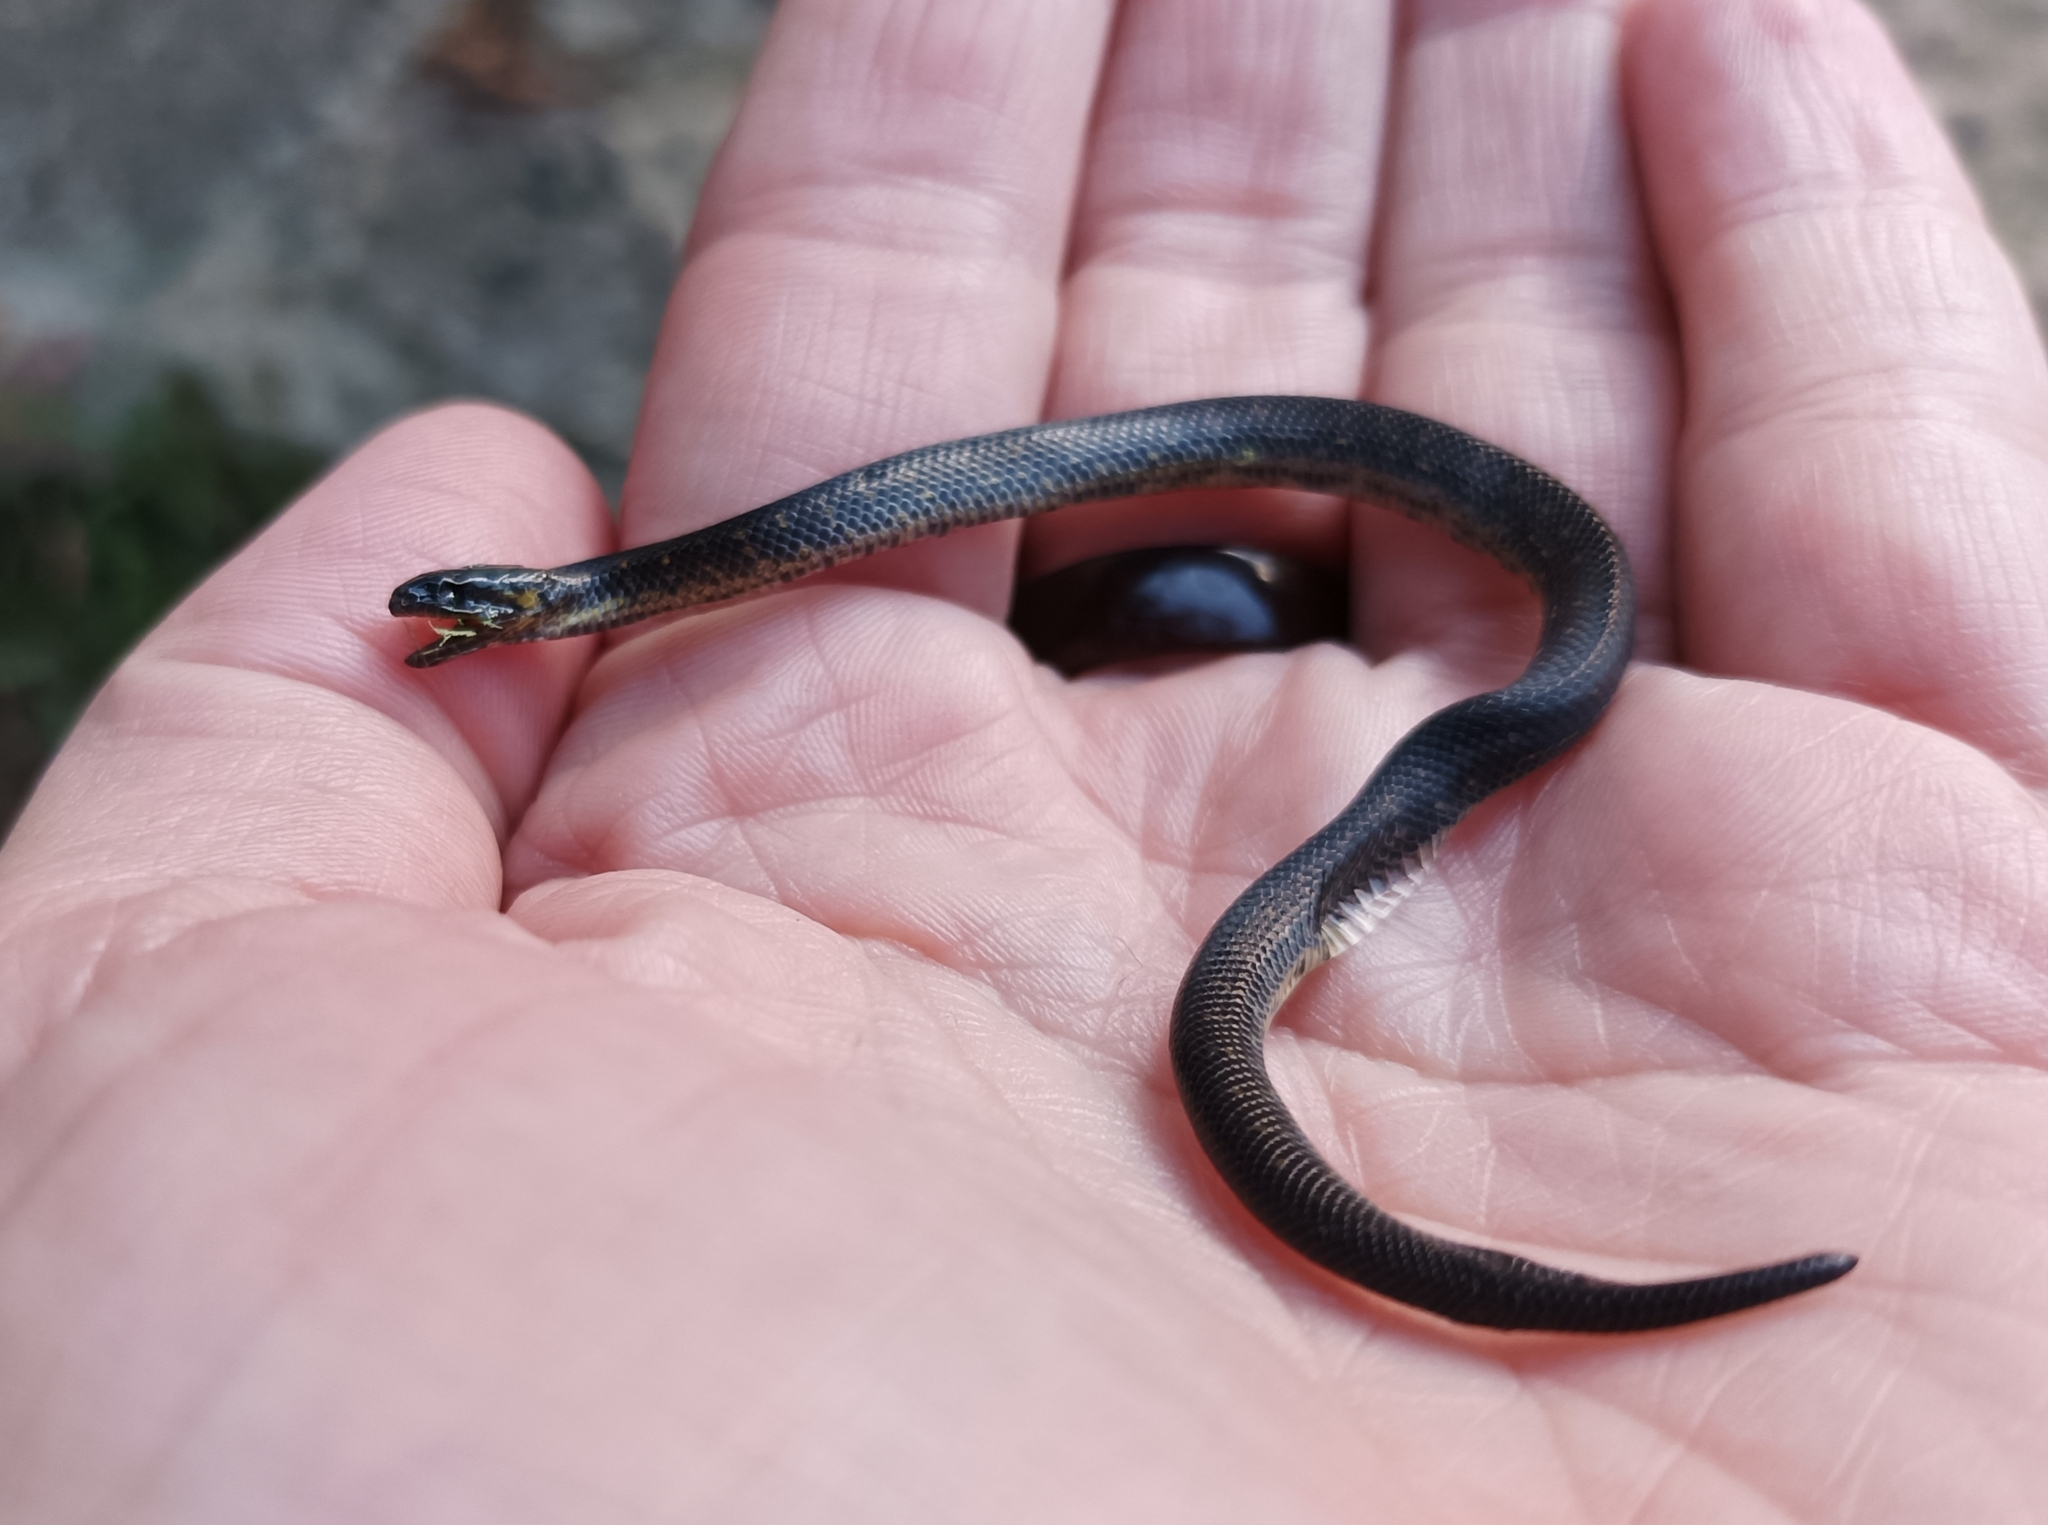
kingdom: Animalia
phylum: Chordata
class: Squamata
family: Colubridae
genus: Atractus
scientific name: Atractus crassicaudatus
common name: Thickhead ground snake
